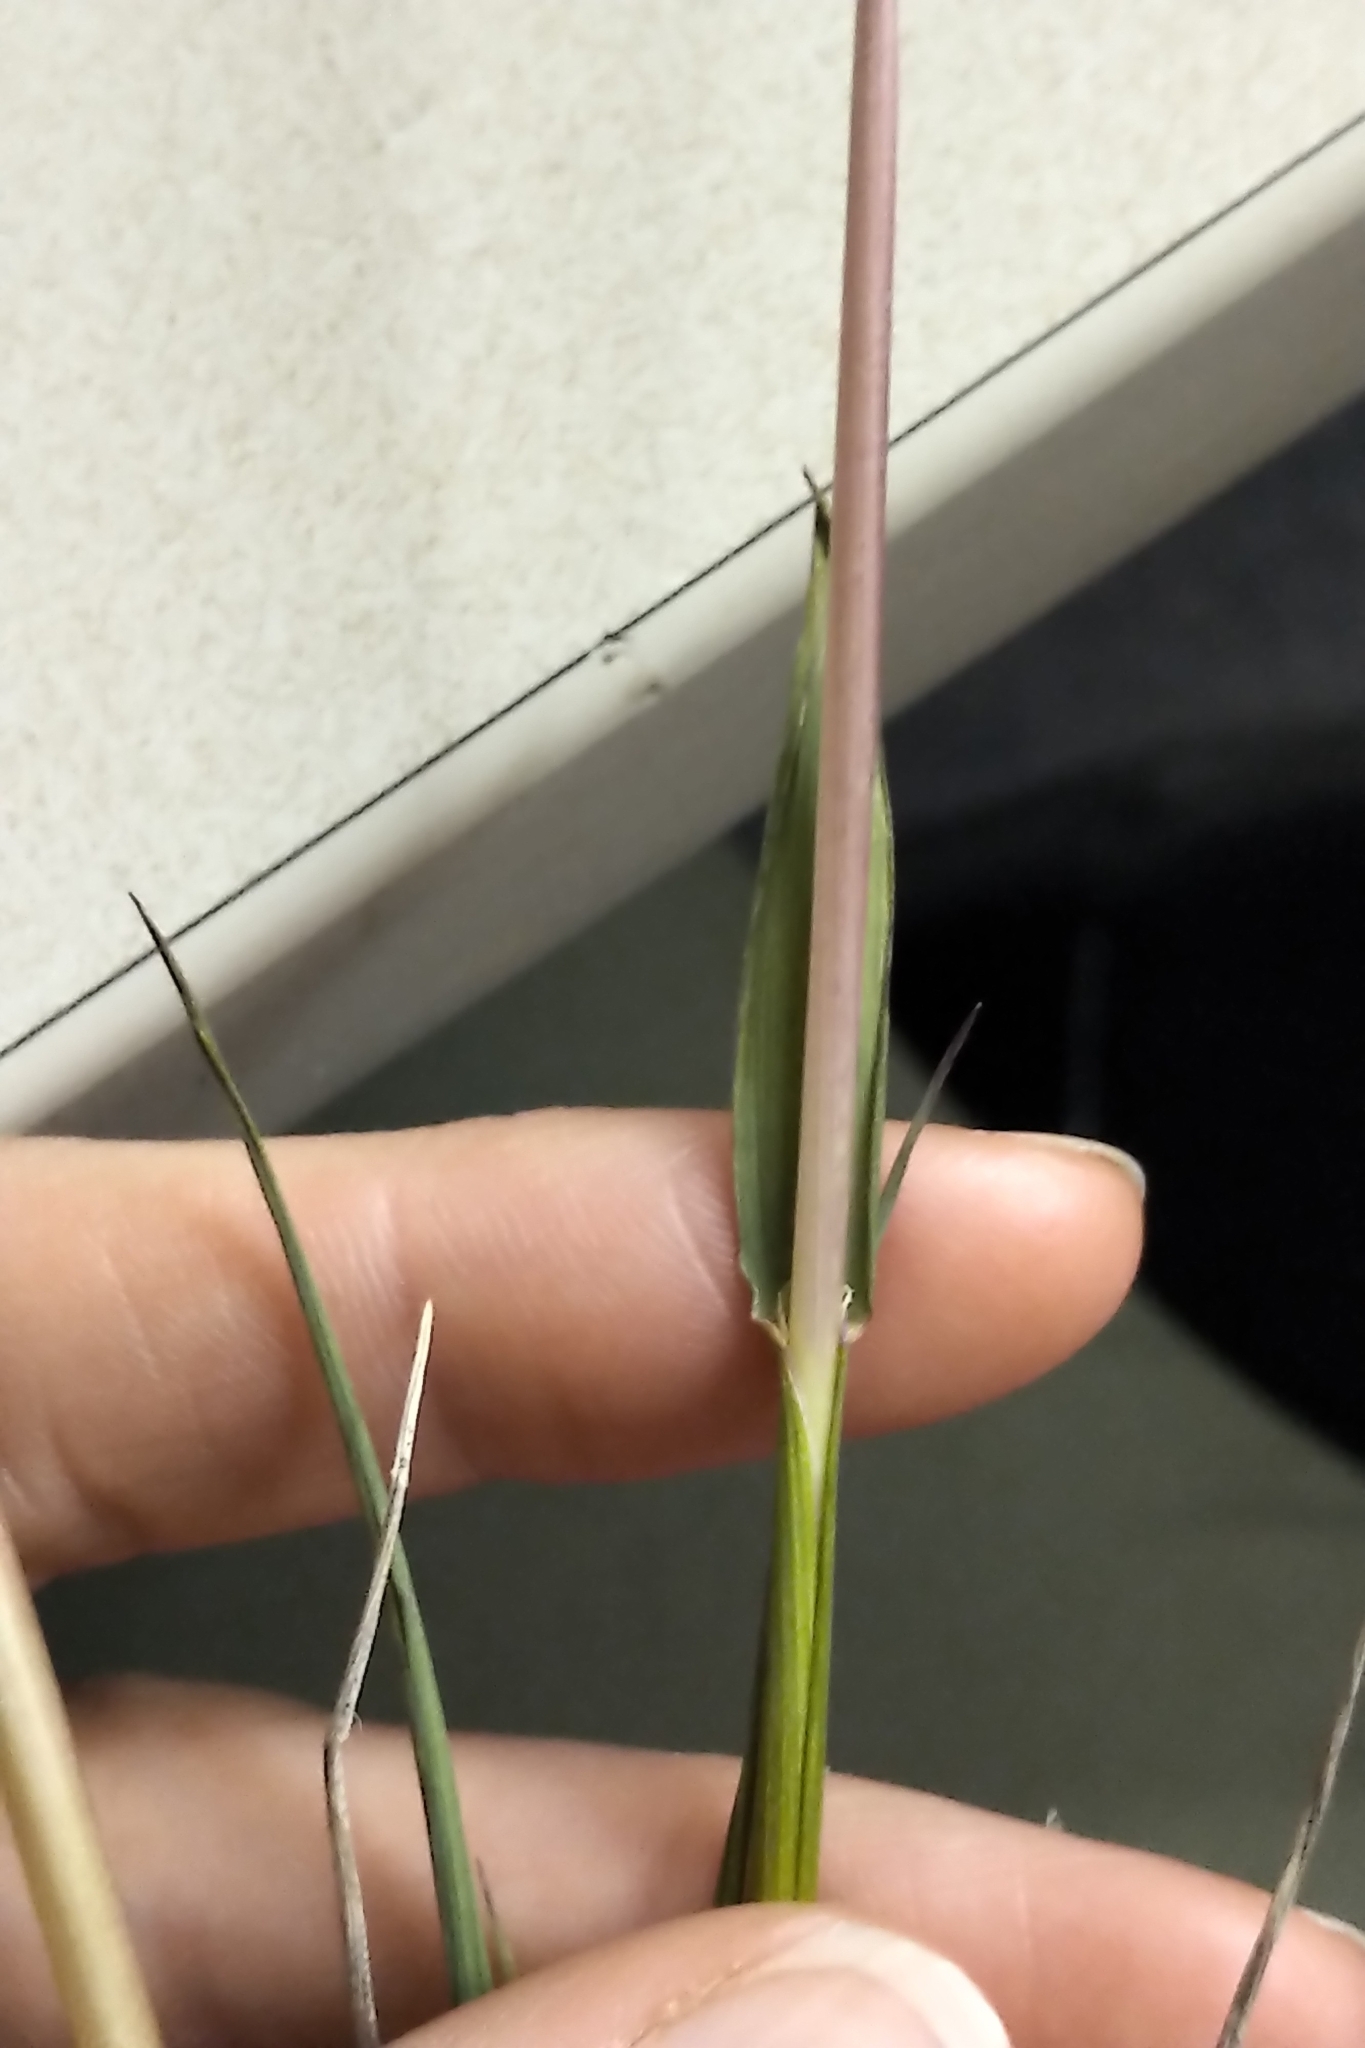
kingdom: Plantae
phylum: Tracheophyta
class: Liliopsida
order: Poales
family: Poaceae
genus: Arctagrostis
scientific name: Arctagrostis latifolia
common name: Arctic grass
